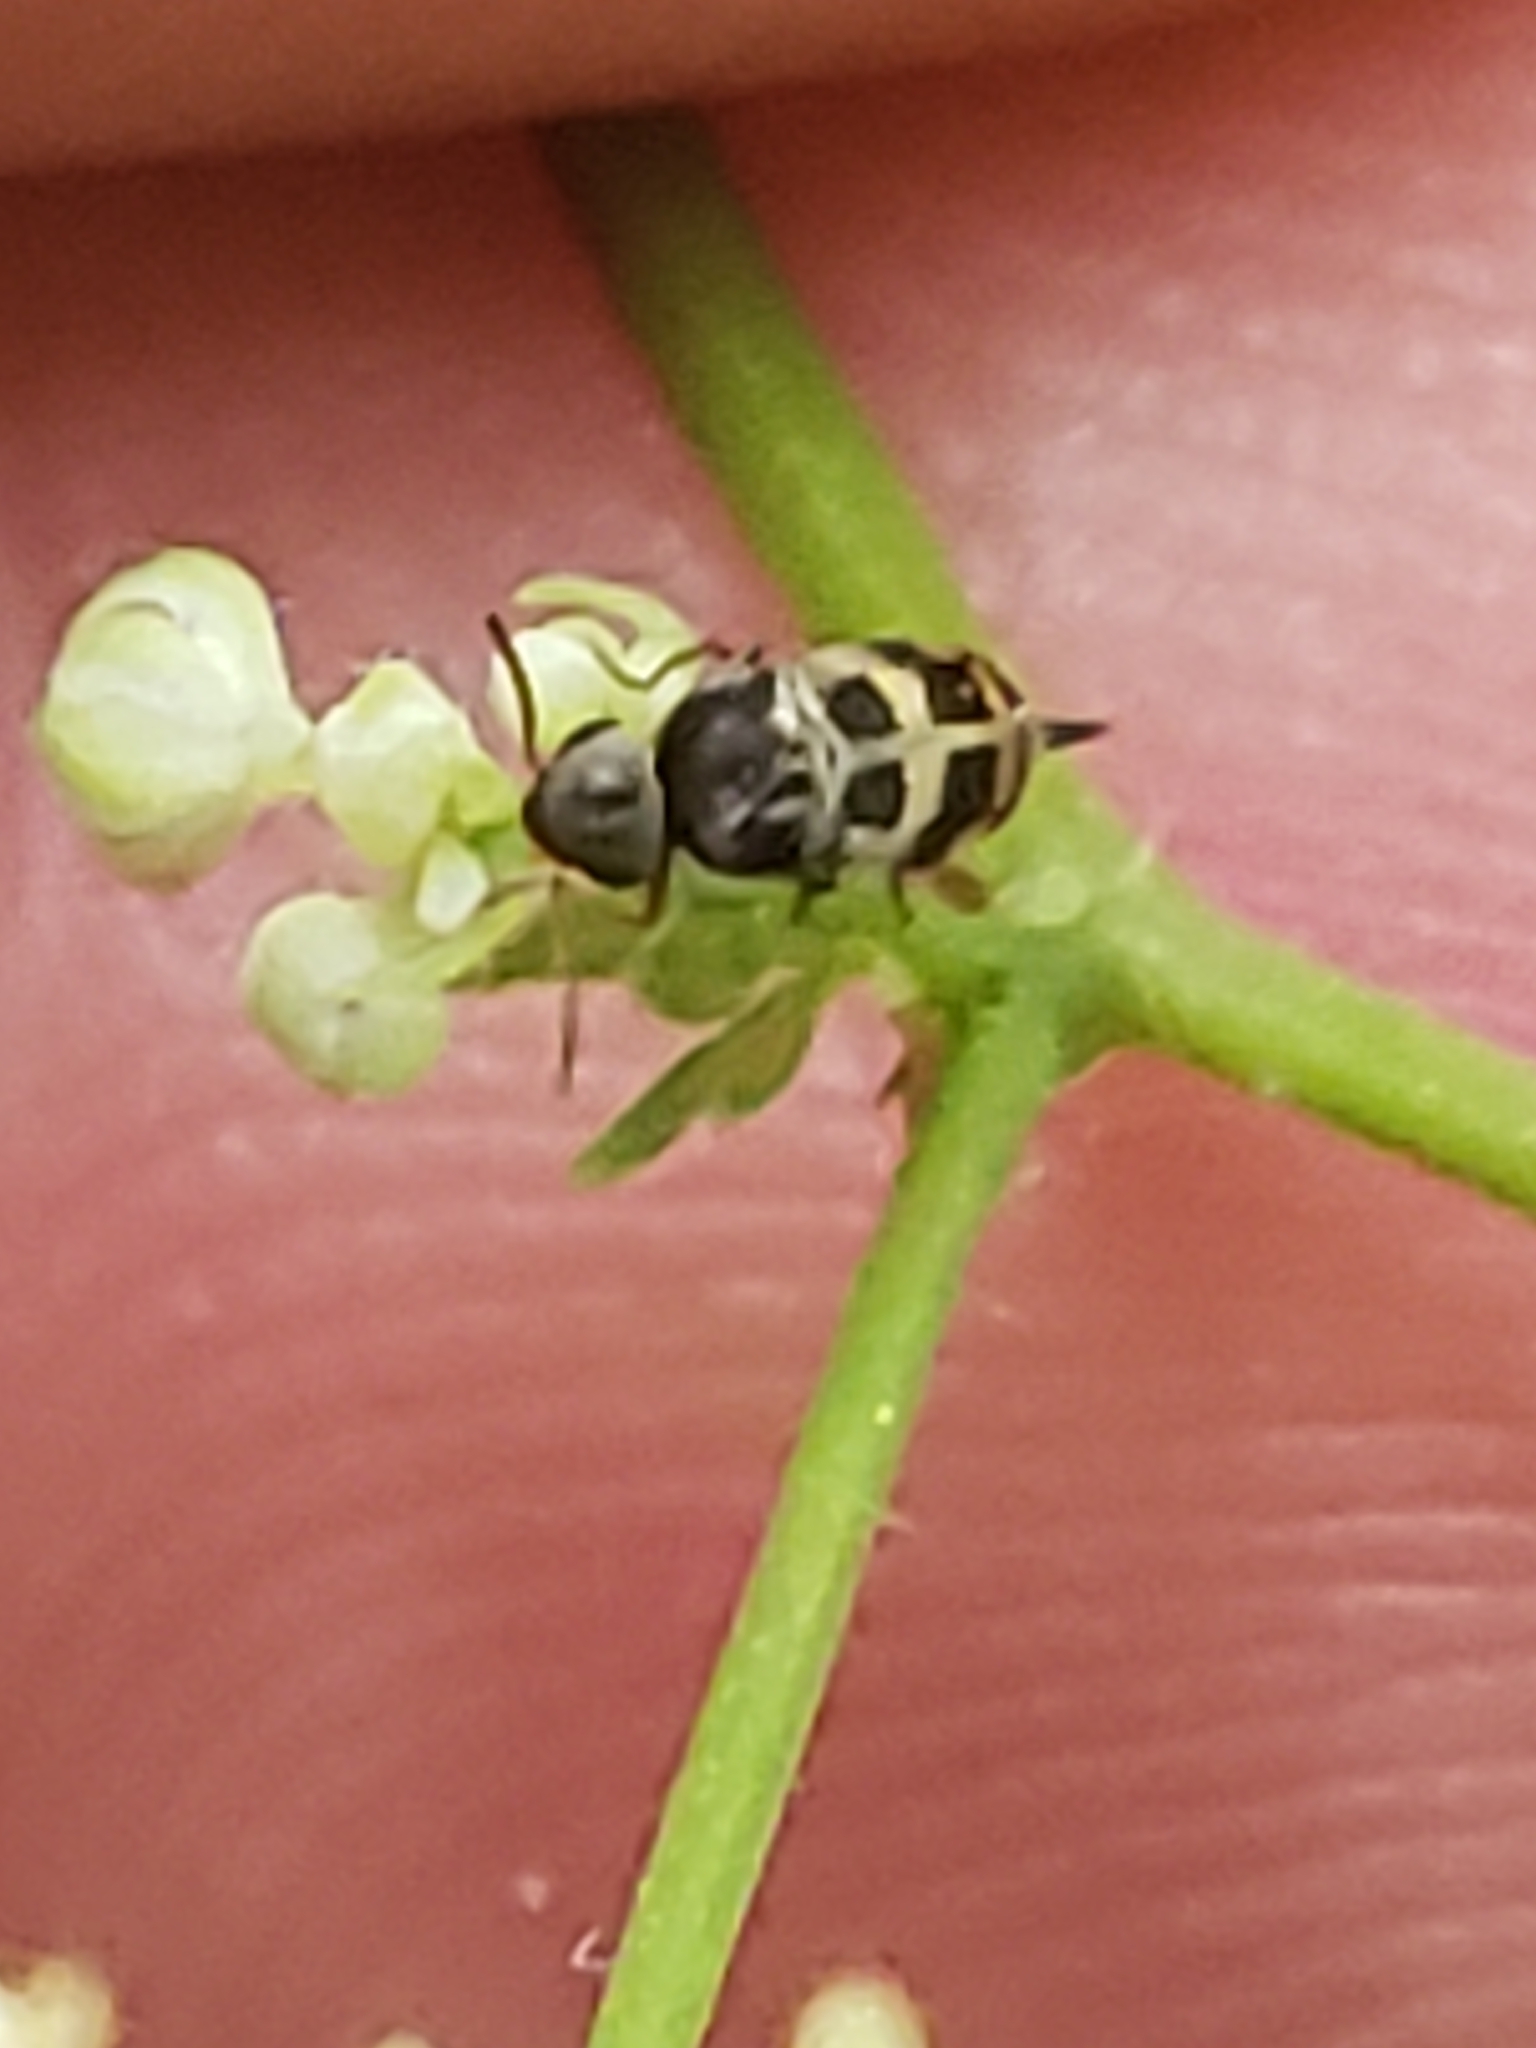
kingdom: Animalia
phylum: Arthropoda
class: Insecta
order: Coleoptera
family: Mordellidae
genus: Falsomordellistena
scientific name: Falsomordellistena pubescens
